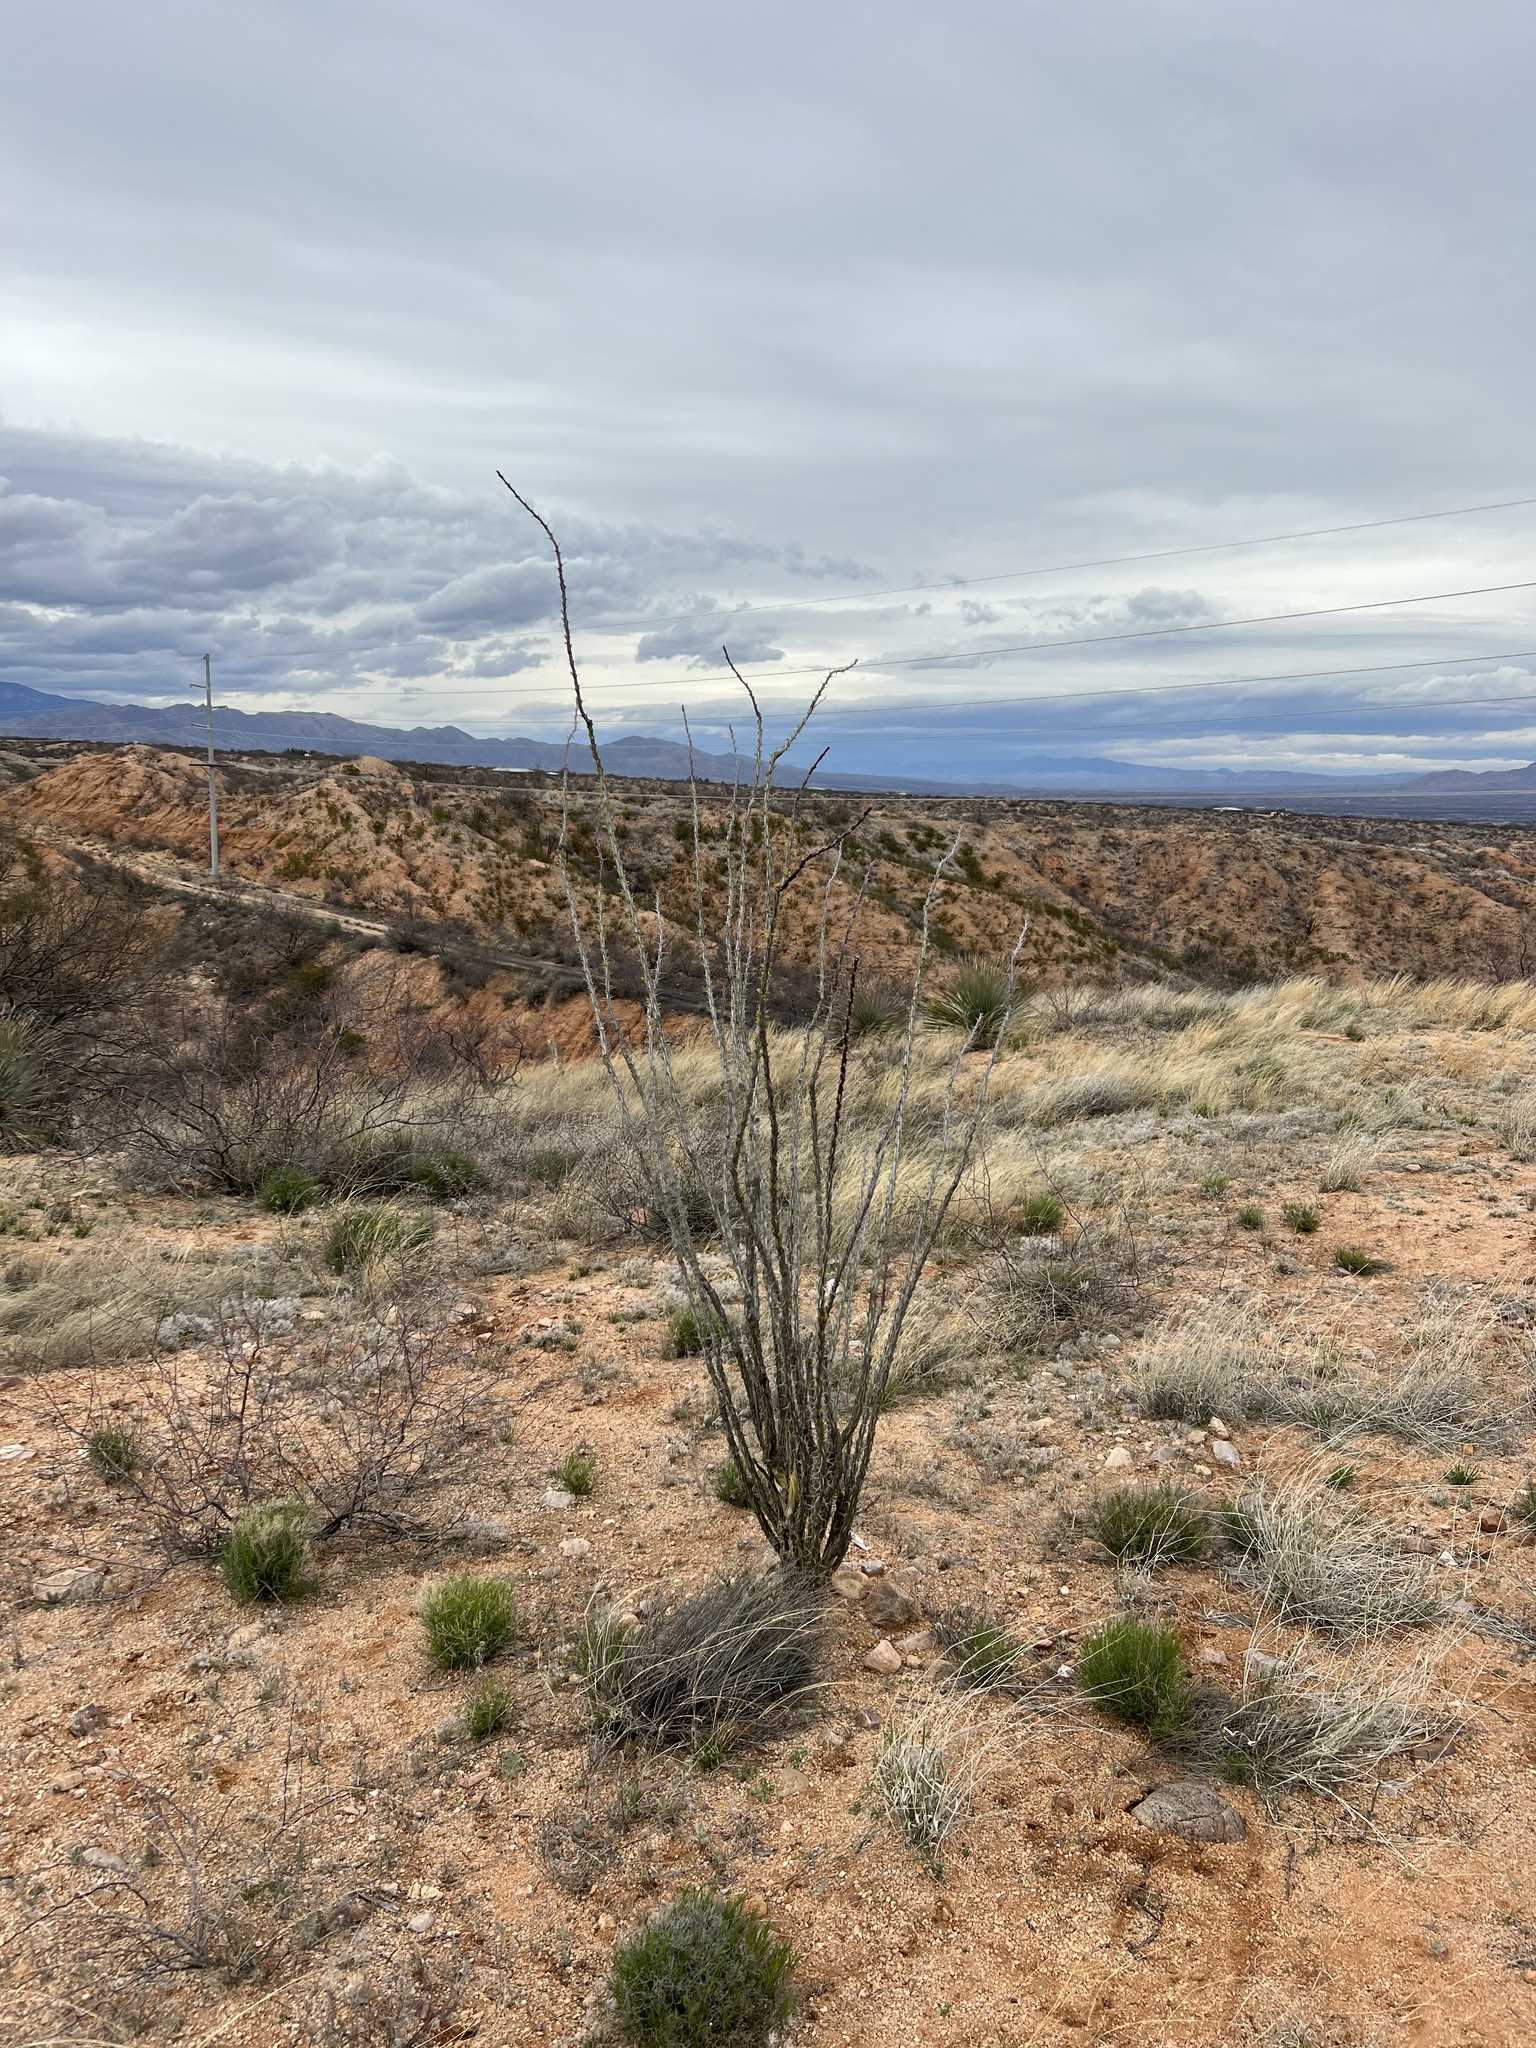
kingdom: Plantae
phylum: Tracheophyta
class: Magnoliopsida
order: Ericales
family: Fouquieriaceae
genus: Fouquieria
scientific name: Fouquieria splendens
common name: Vine-cactus
